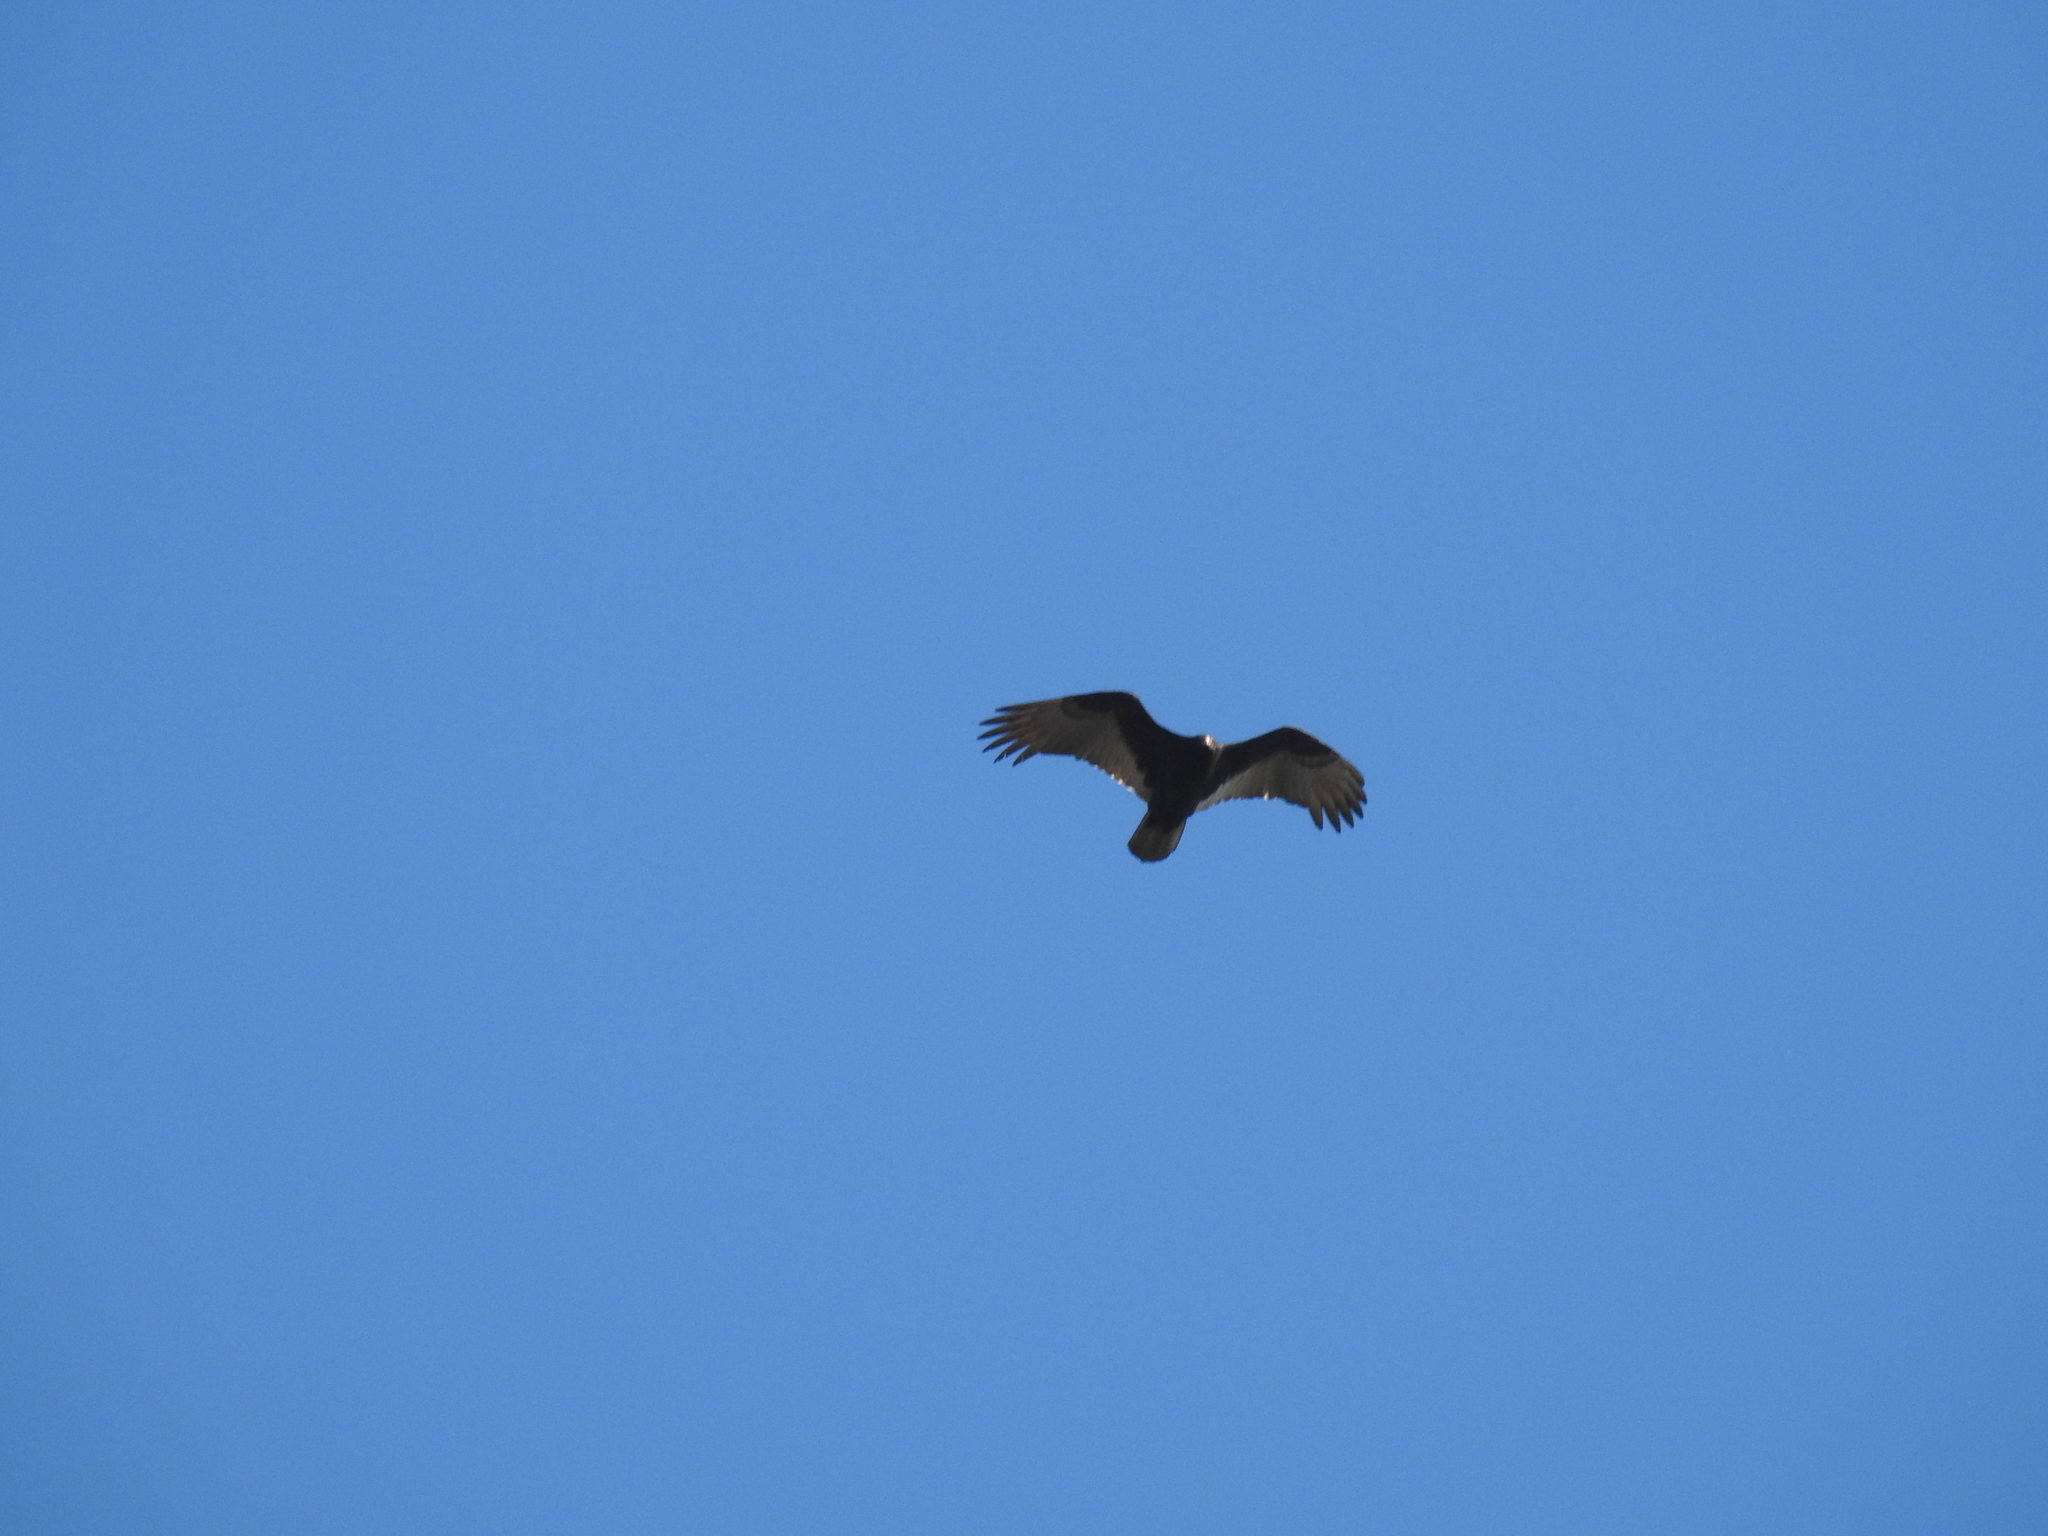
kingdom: Animalia
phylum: Chordata
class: Aves
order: Accipitriformes
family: Cathartidae
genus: Cathartes
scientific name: Cathartes aura
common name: Turkey vulture
